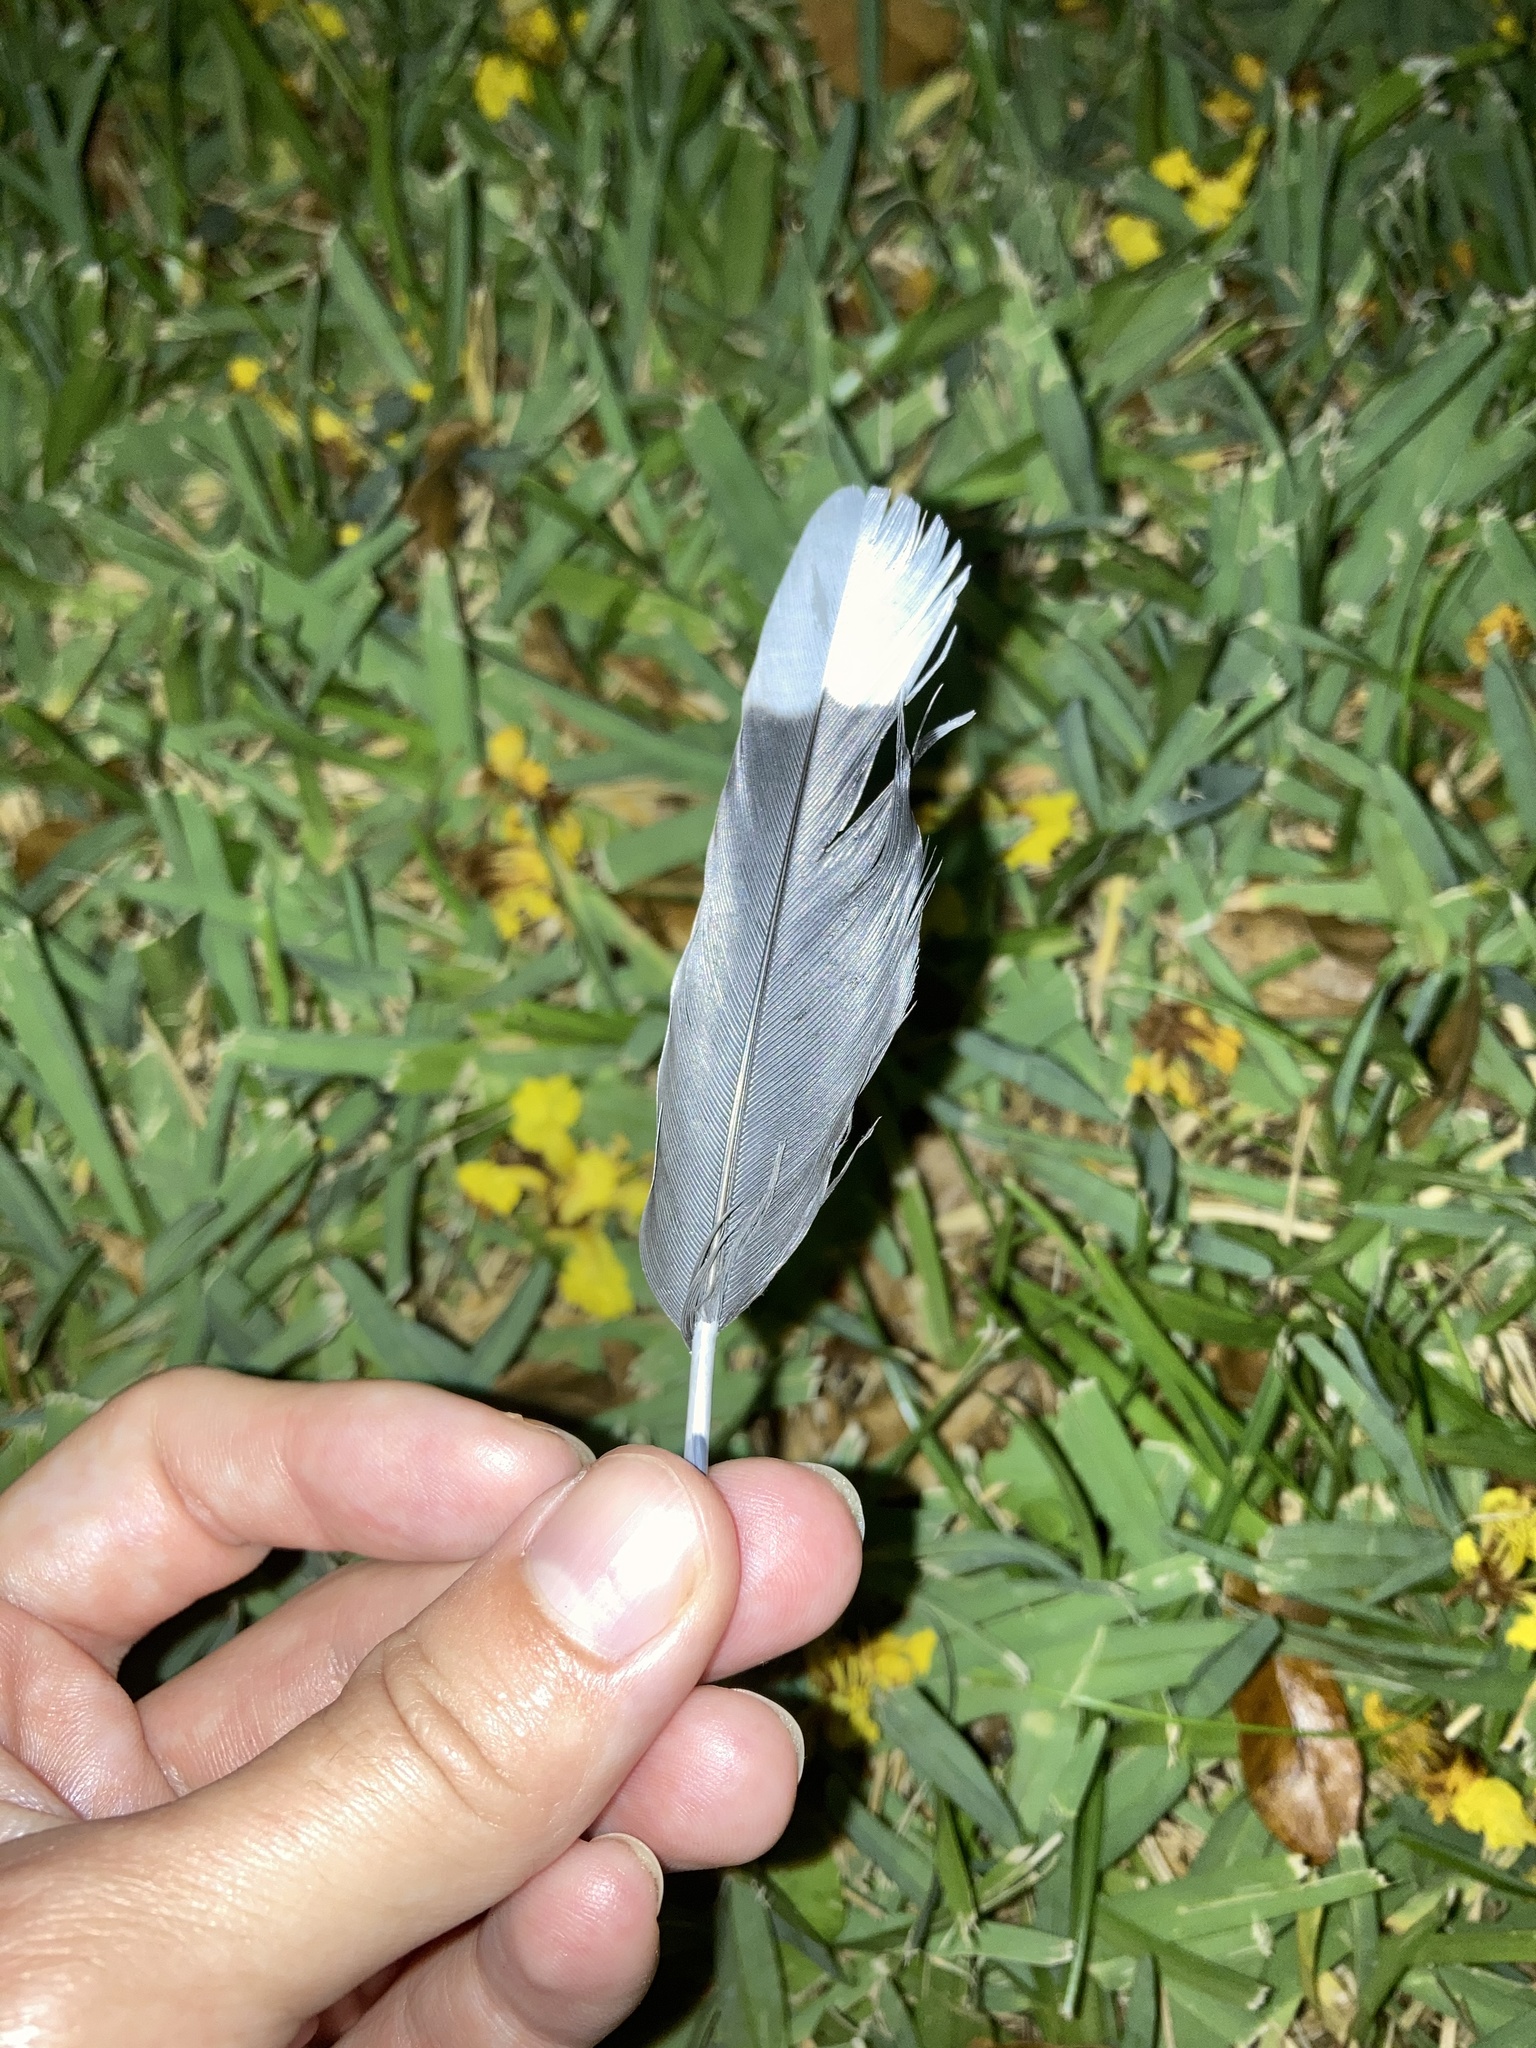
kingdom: Animalia
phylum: Chordata
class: Aves
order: Columbiformes
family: Columbidae
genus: Zenaida
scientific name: Zenaida asiatica
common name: White-winged dove
